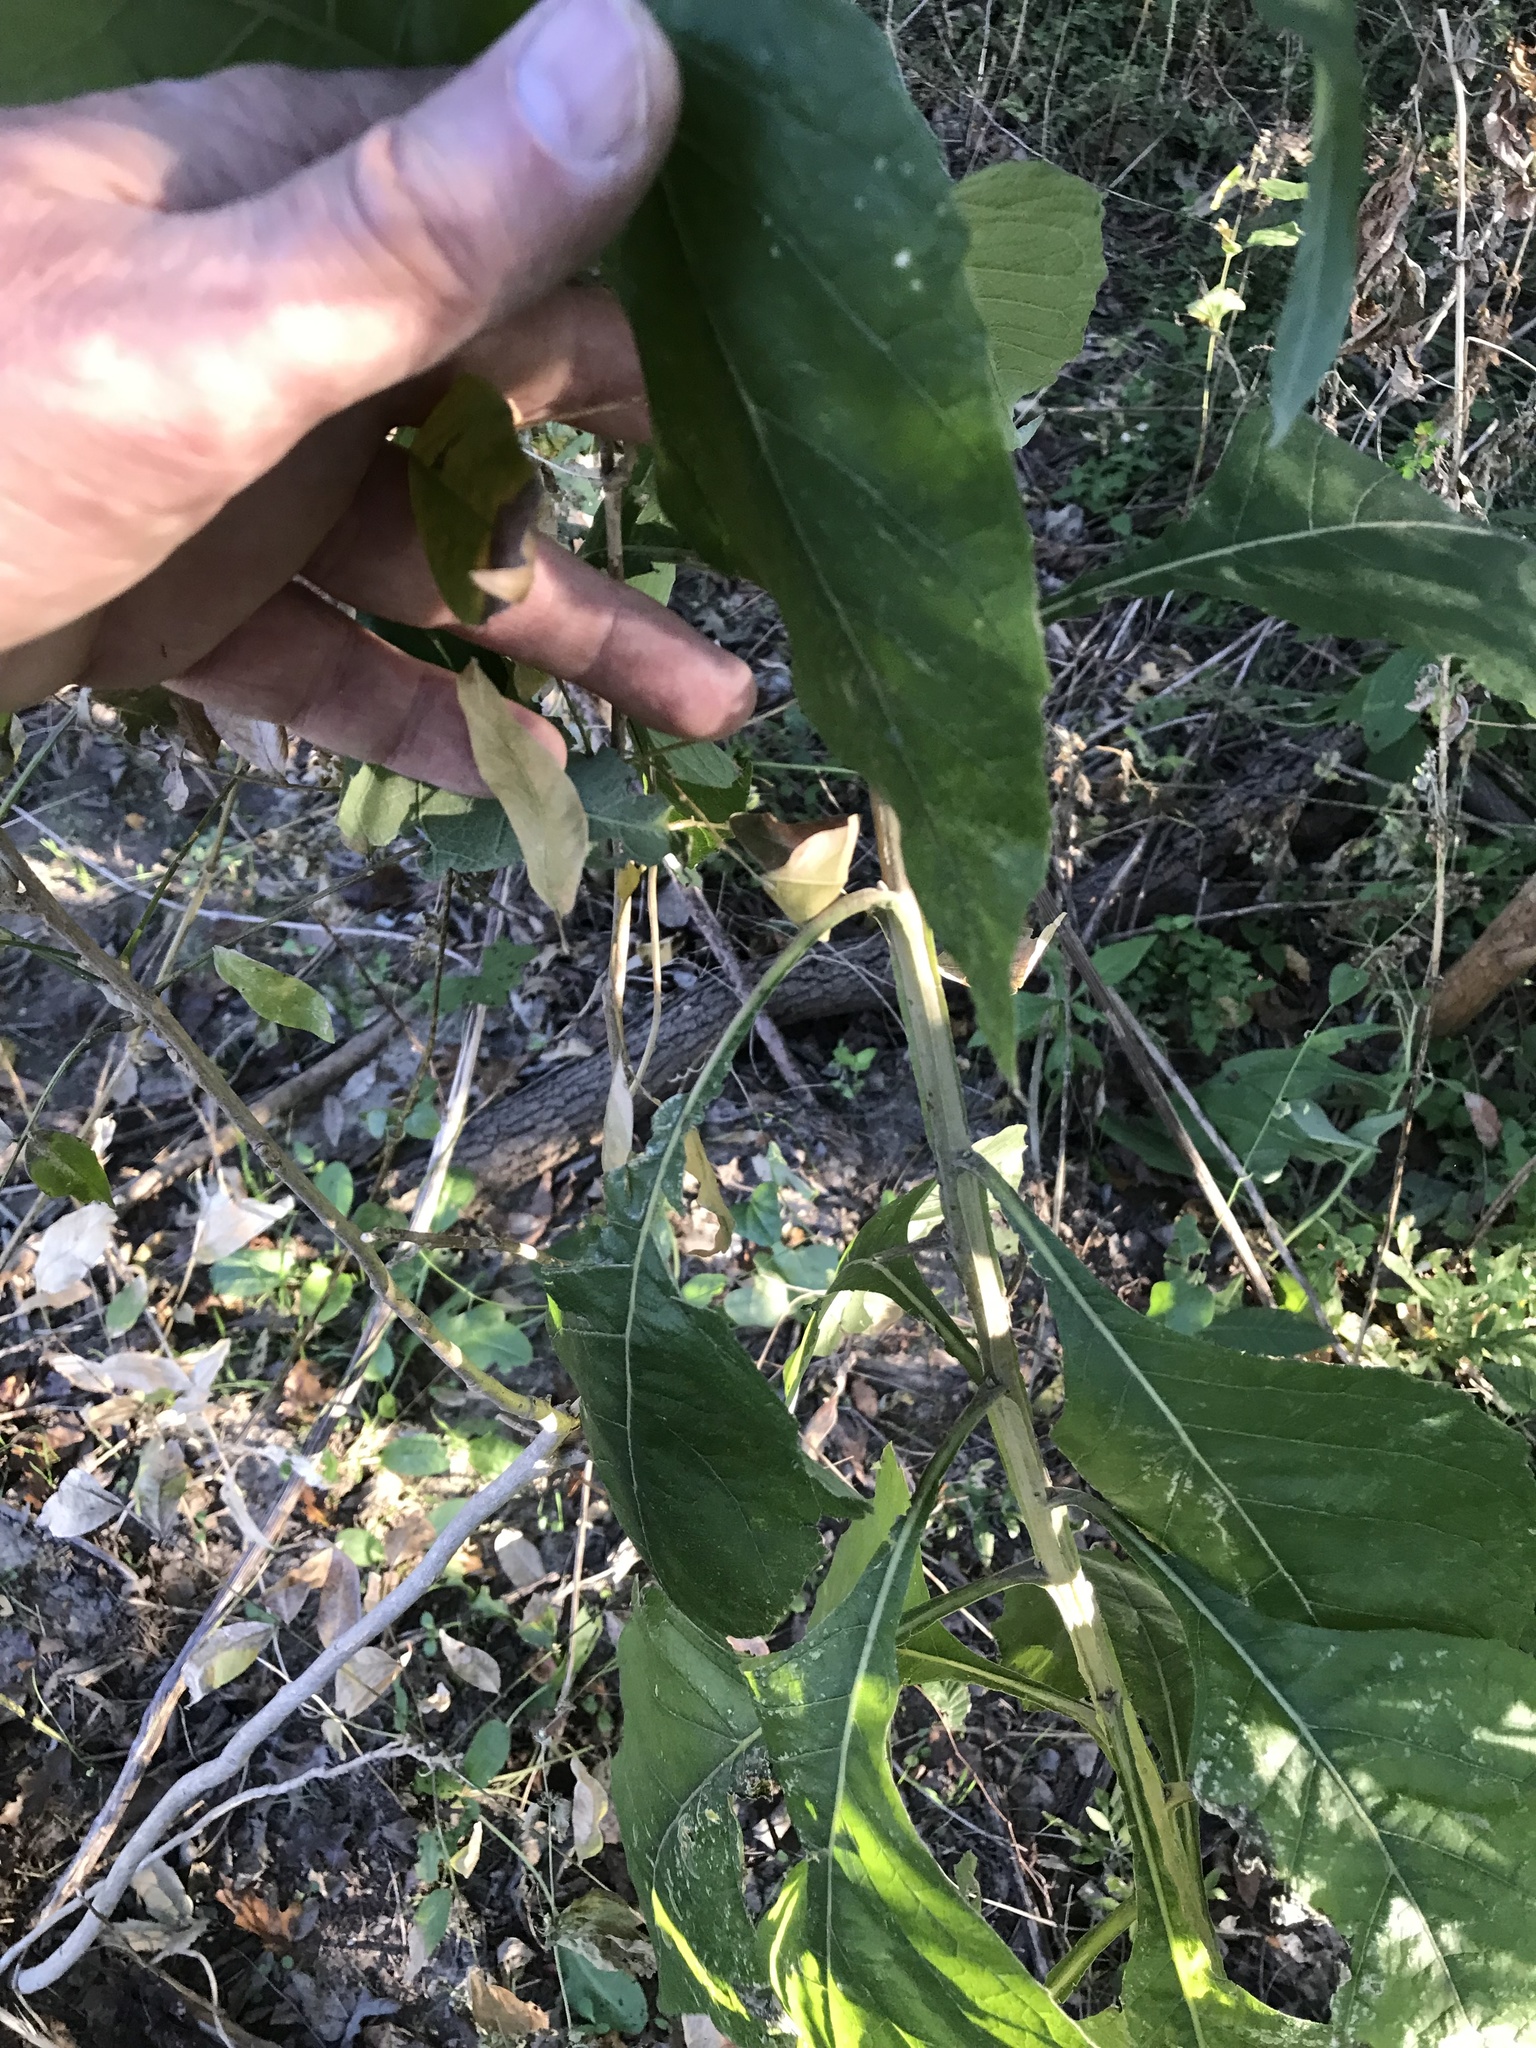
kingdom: Plantae
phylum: Tracheophyta
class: Magnoliopsida
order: Asterales
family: Asteraceae
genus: Verbesina
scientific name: Verbesina virginica
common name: Frostweed
